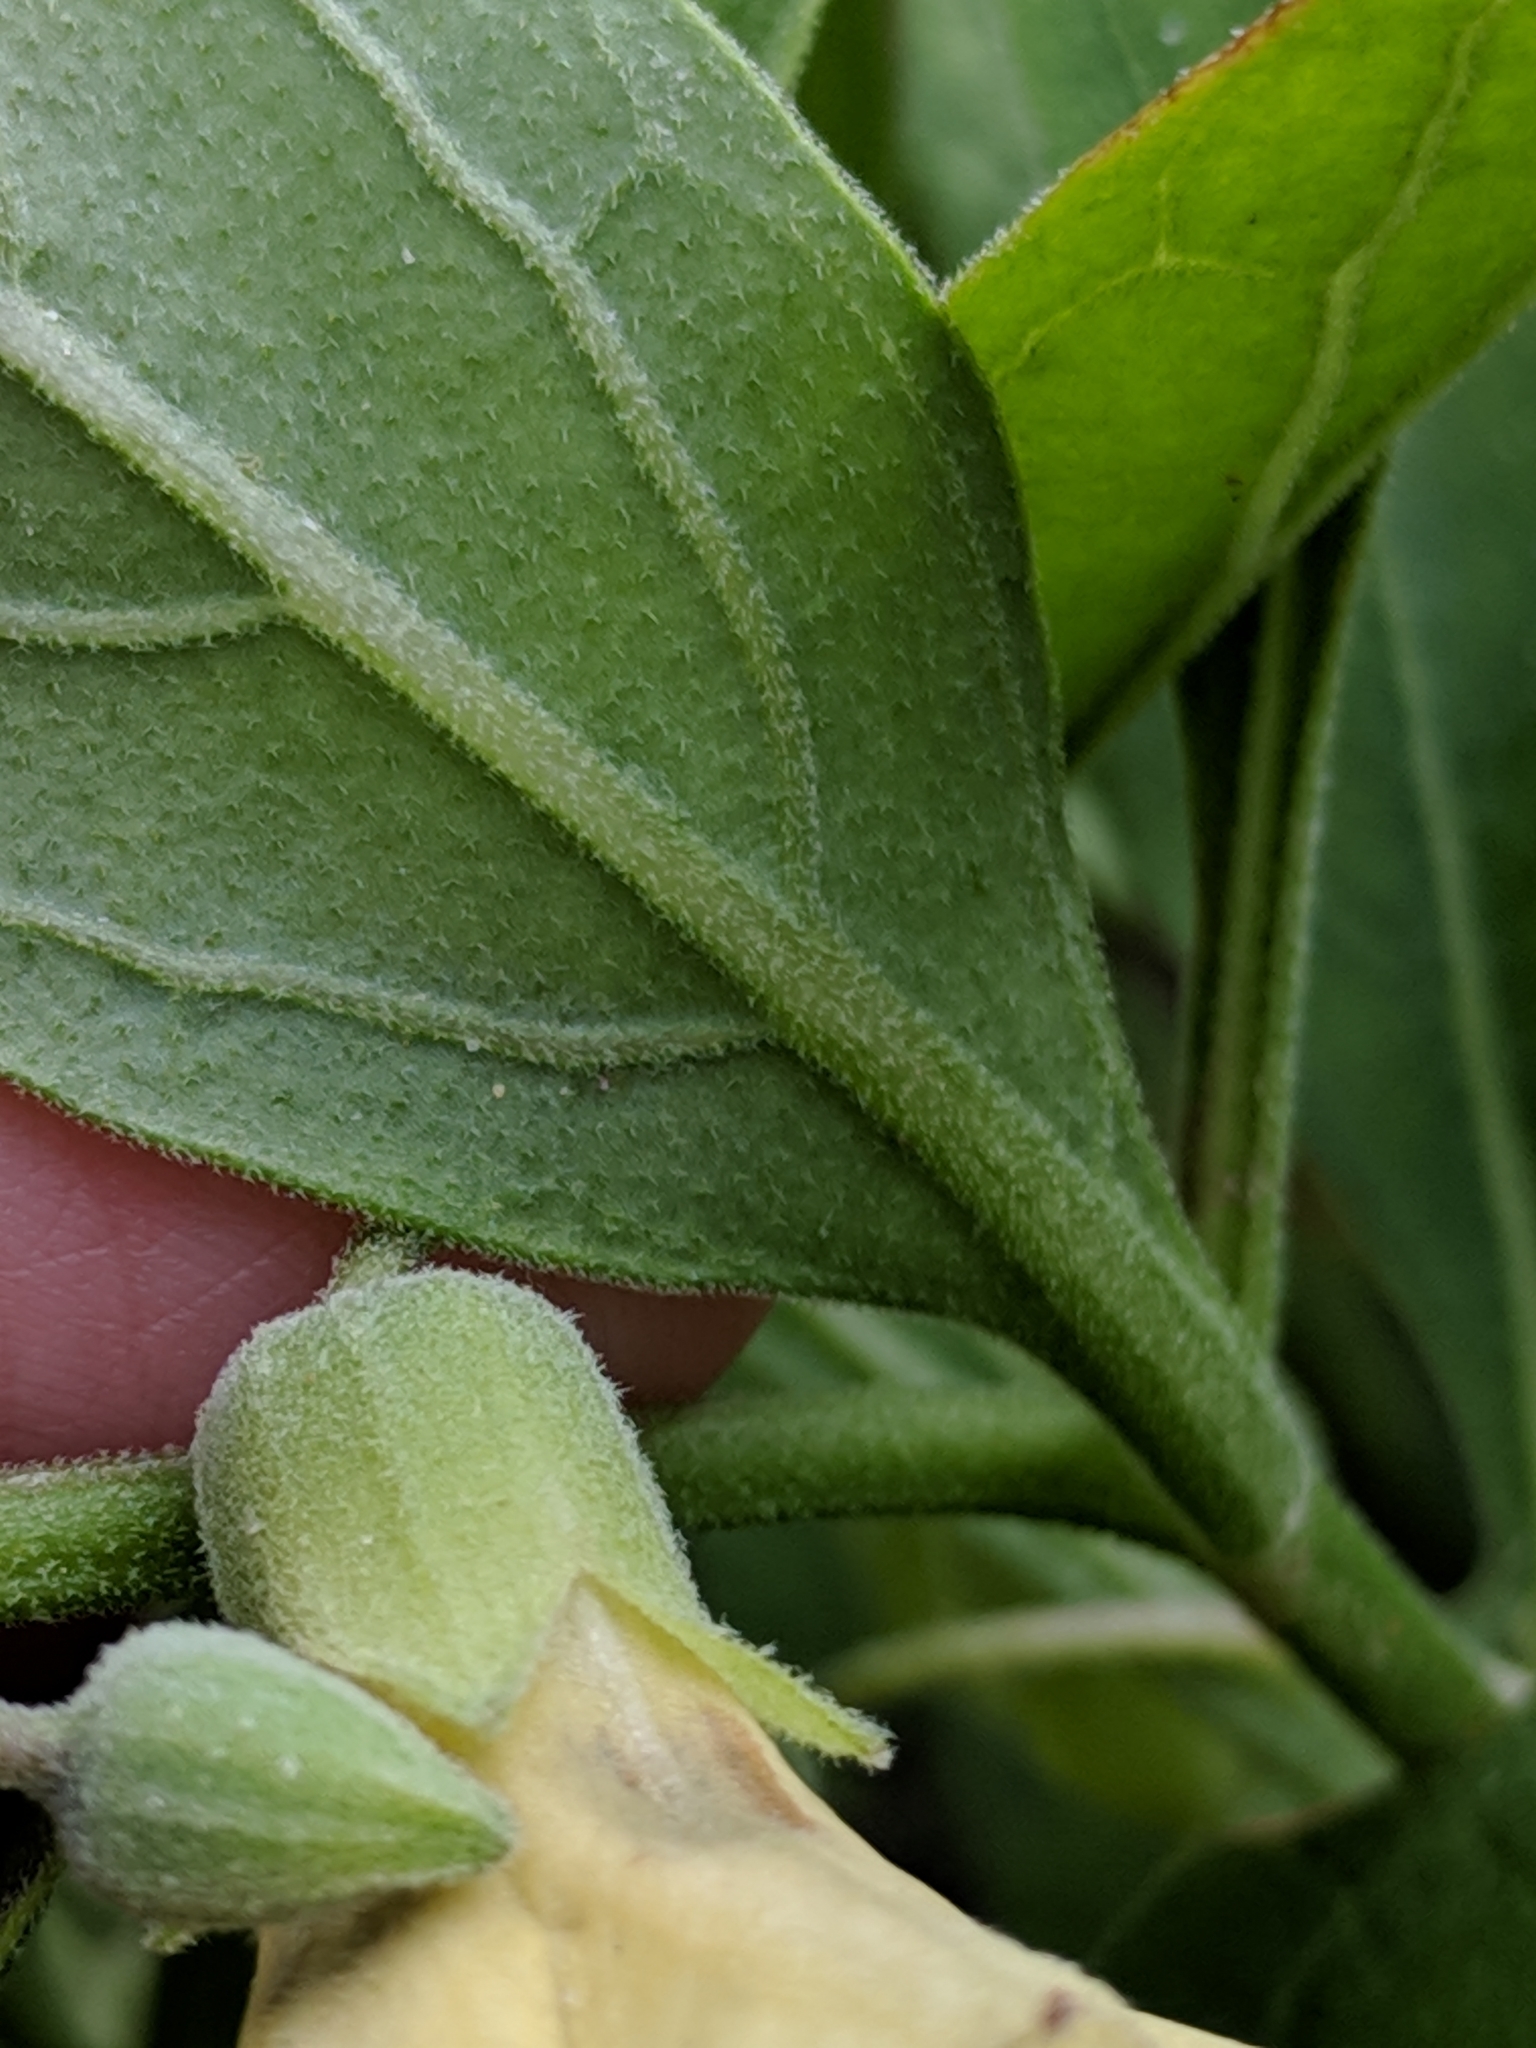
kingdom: Plantae
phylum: Tracheophyta
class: Magnoliopsida
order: Solanales
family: Solanaceae
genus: Physalis
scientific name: Physalis cinerascens
